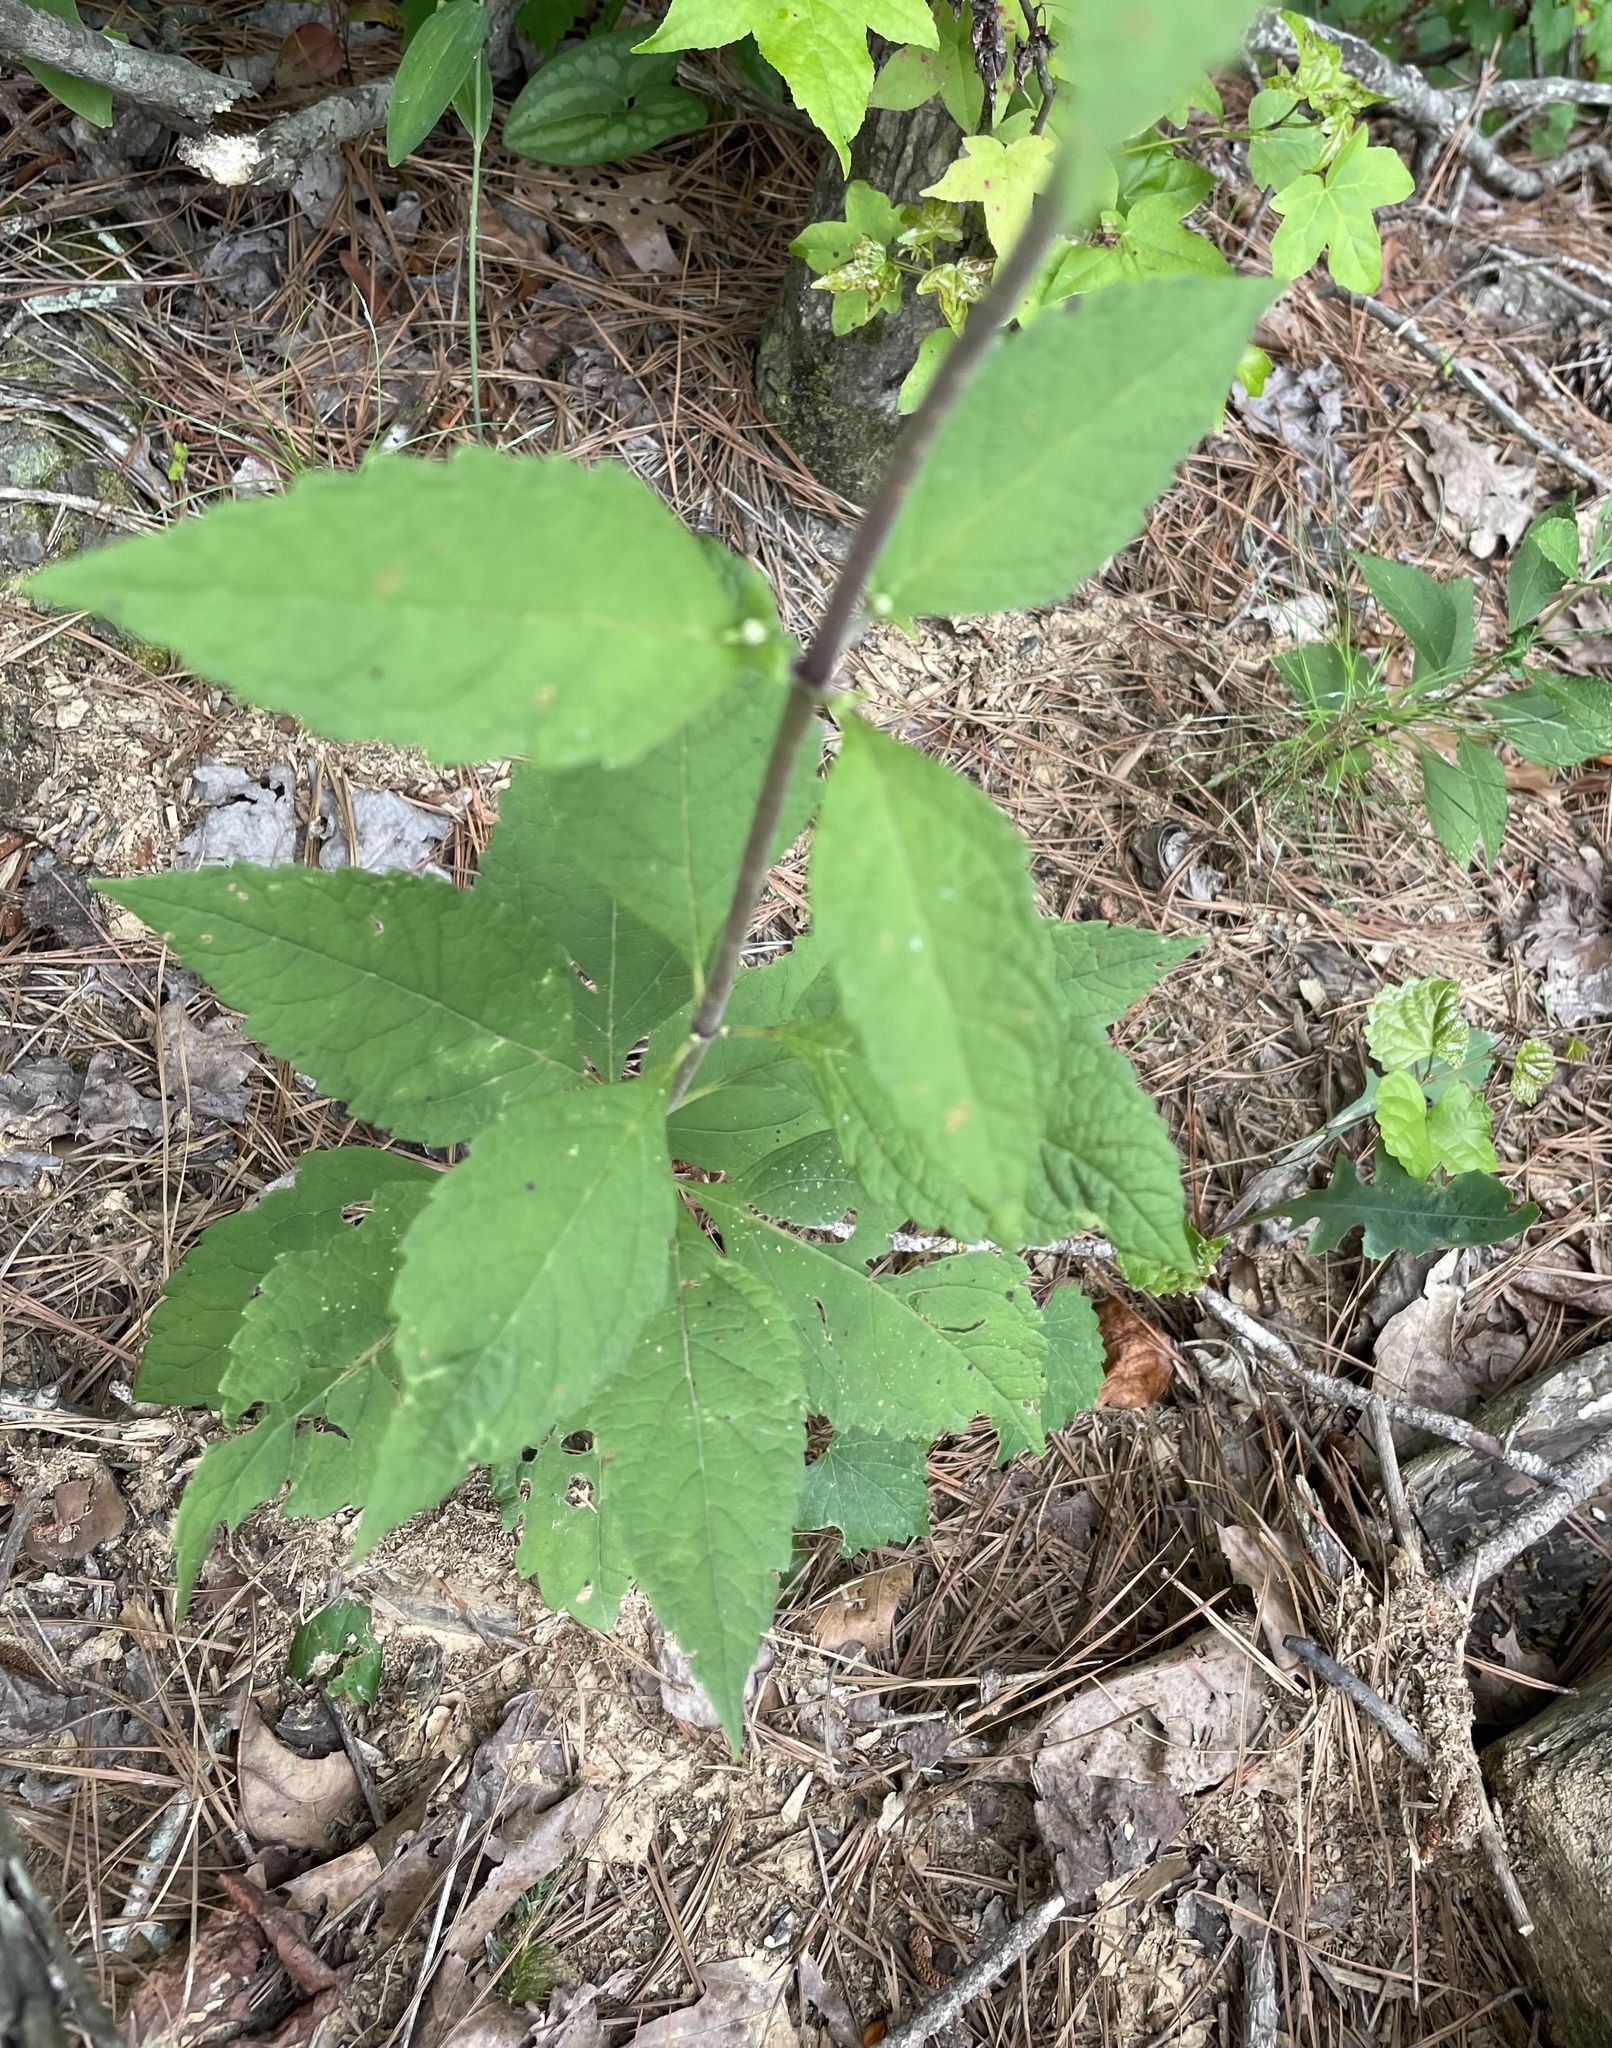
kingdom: Plantae
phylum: Tracheophyta
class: Magnoliopsida
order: Asterales
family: Asteraceae
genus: Eutrochium
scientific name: Eutrochium purpureum
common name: Gravelroot
